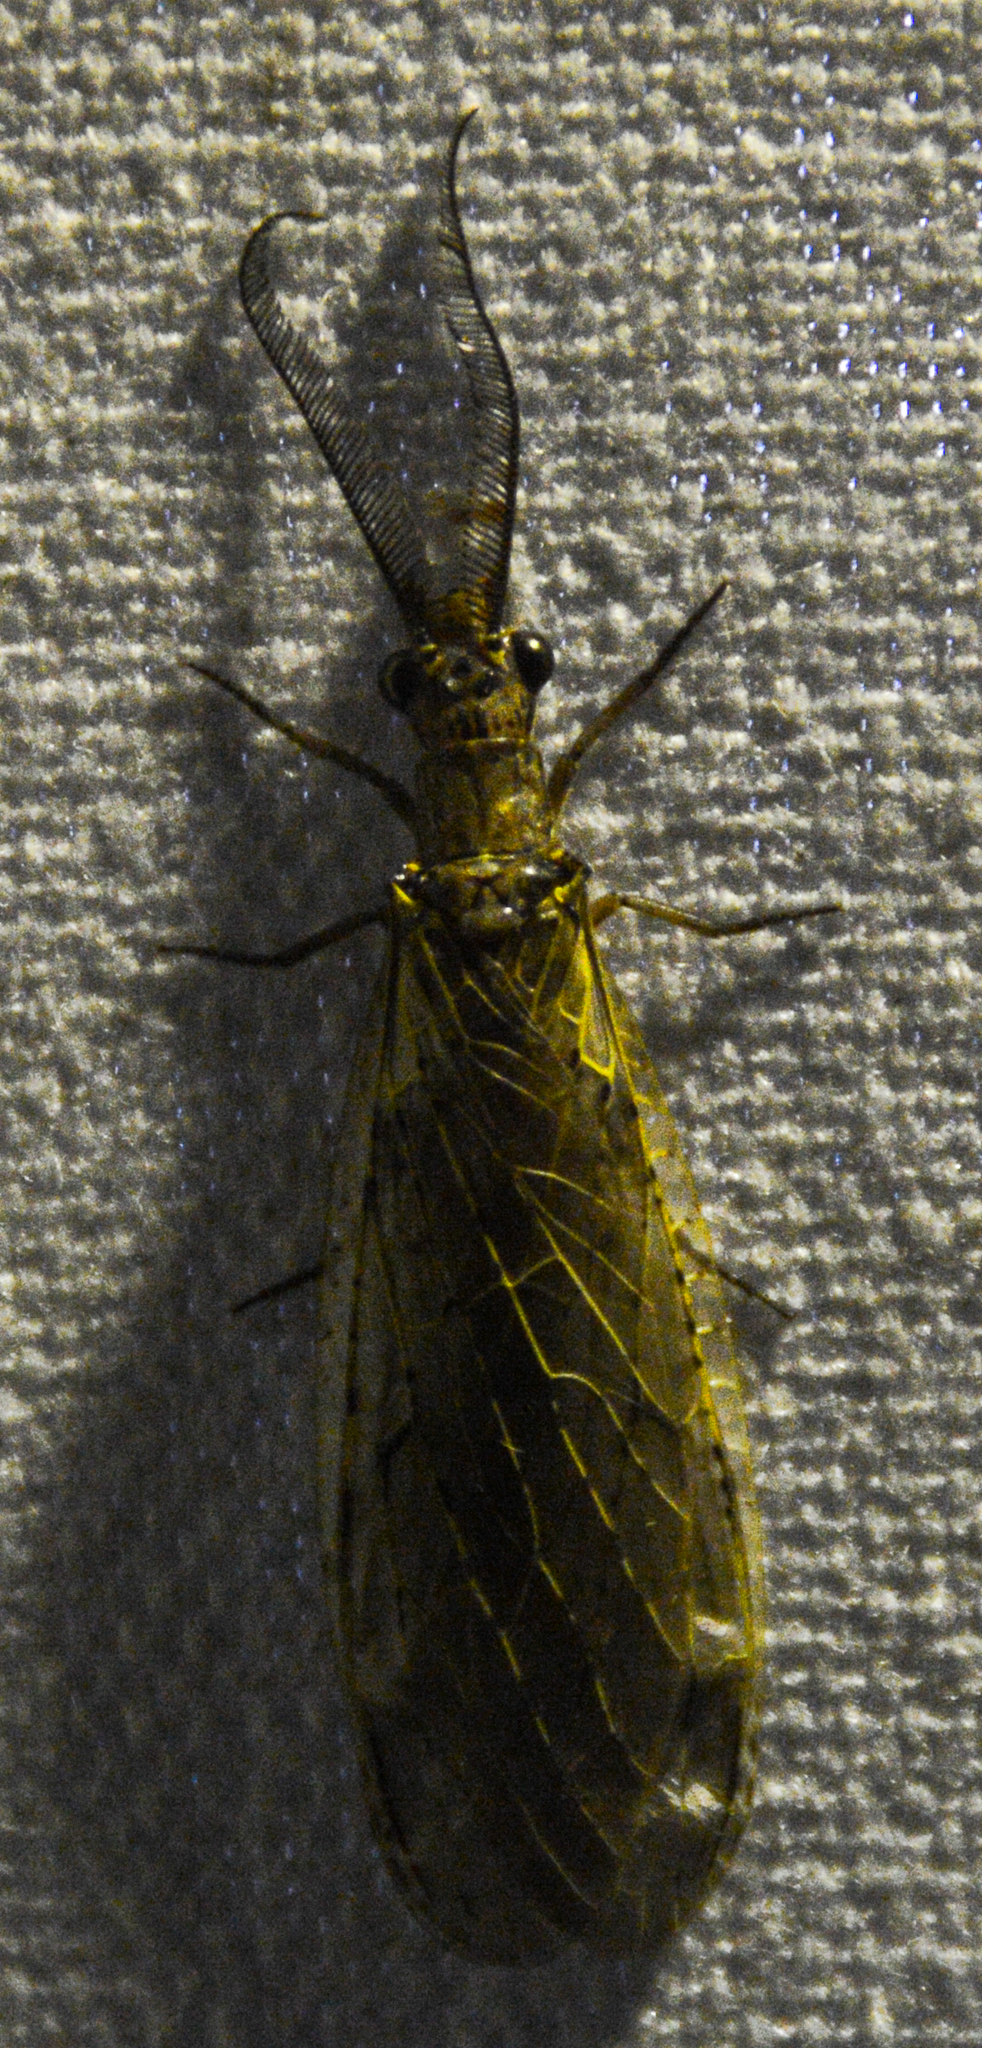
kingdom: Animalia
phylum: Arthropoda
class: Insecta
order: Megaloptera
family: Corydalidae
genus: Chauliodes
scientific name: Chauliodes rastricornis
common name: Spring fishfly
